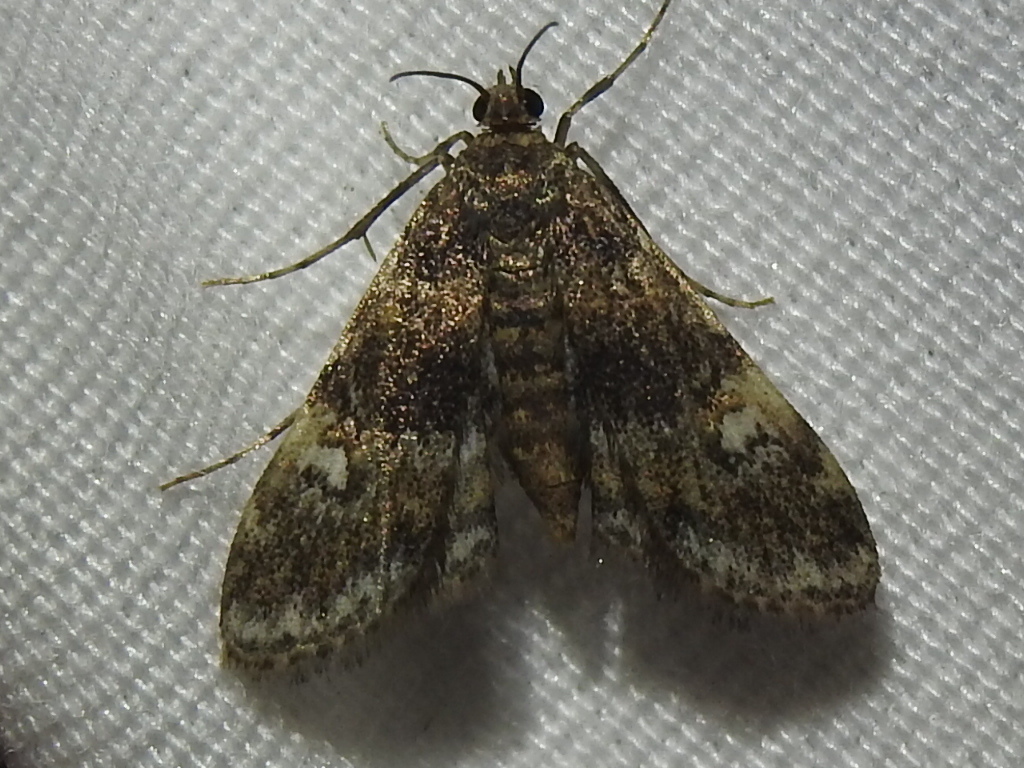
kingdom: Animalia
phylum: Arthropoda
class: Insecta
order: Lepidoptera
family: Crambidae
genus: Elophila
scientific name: Elophila obliteralis
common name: Waterlily leafcutter moth
